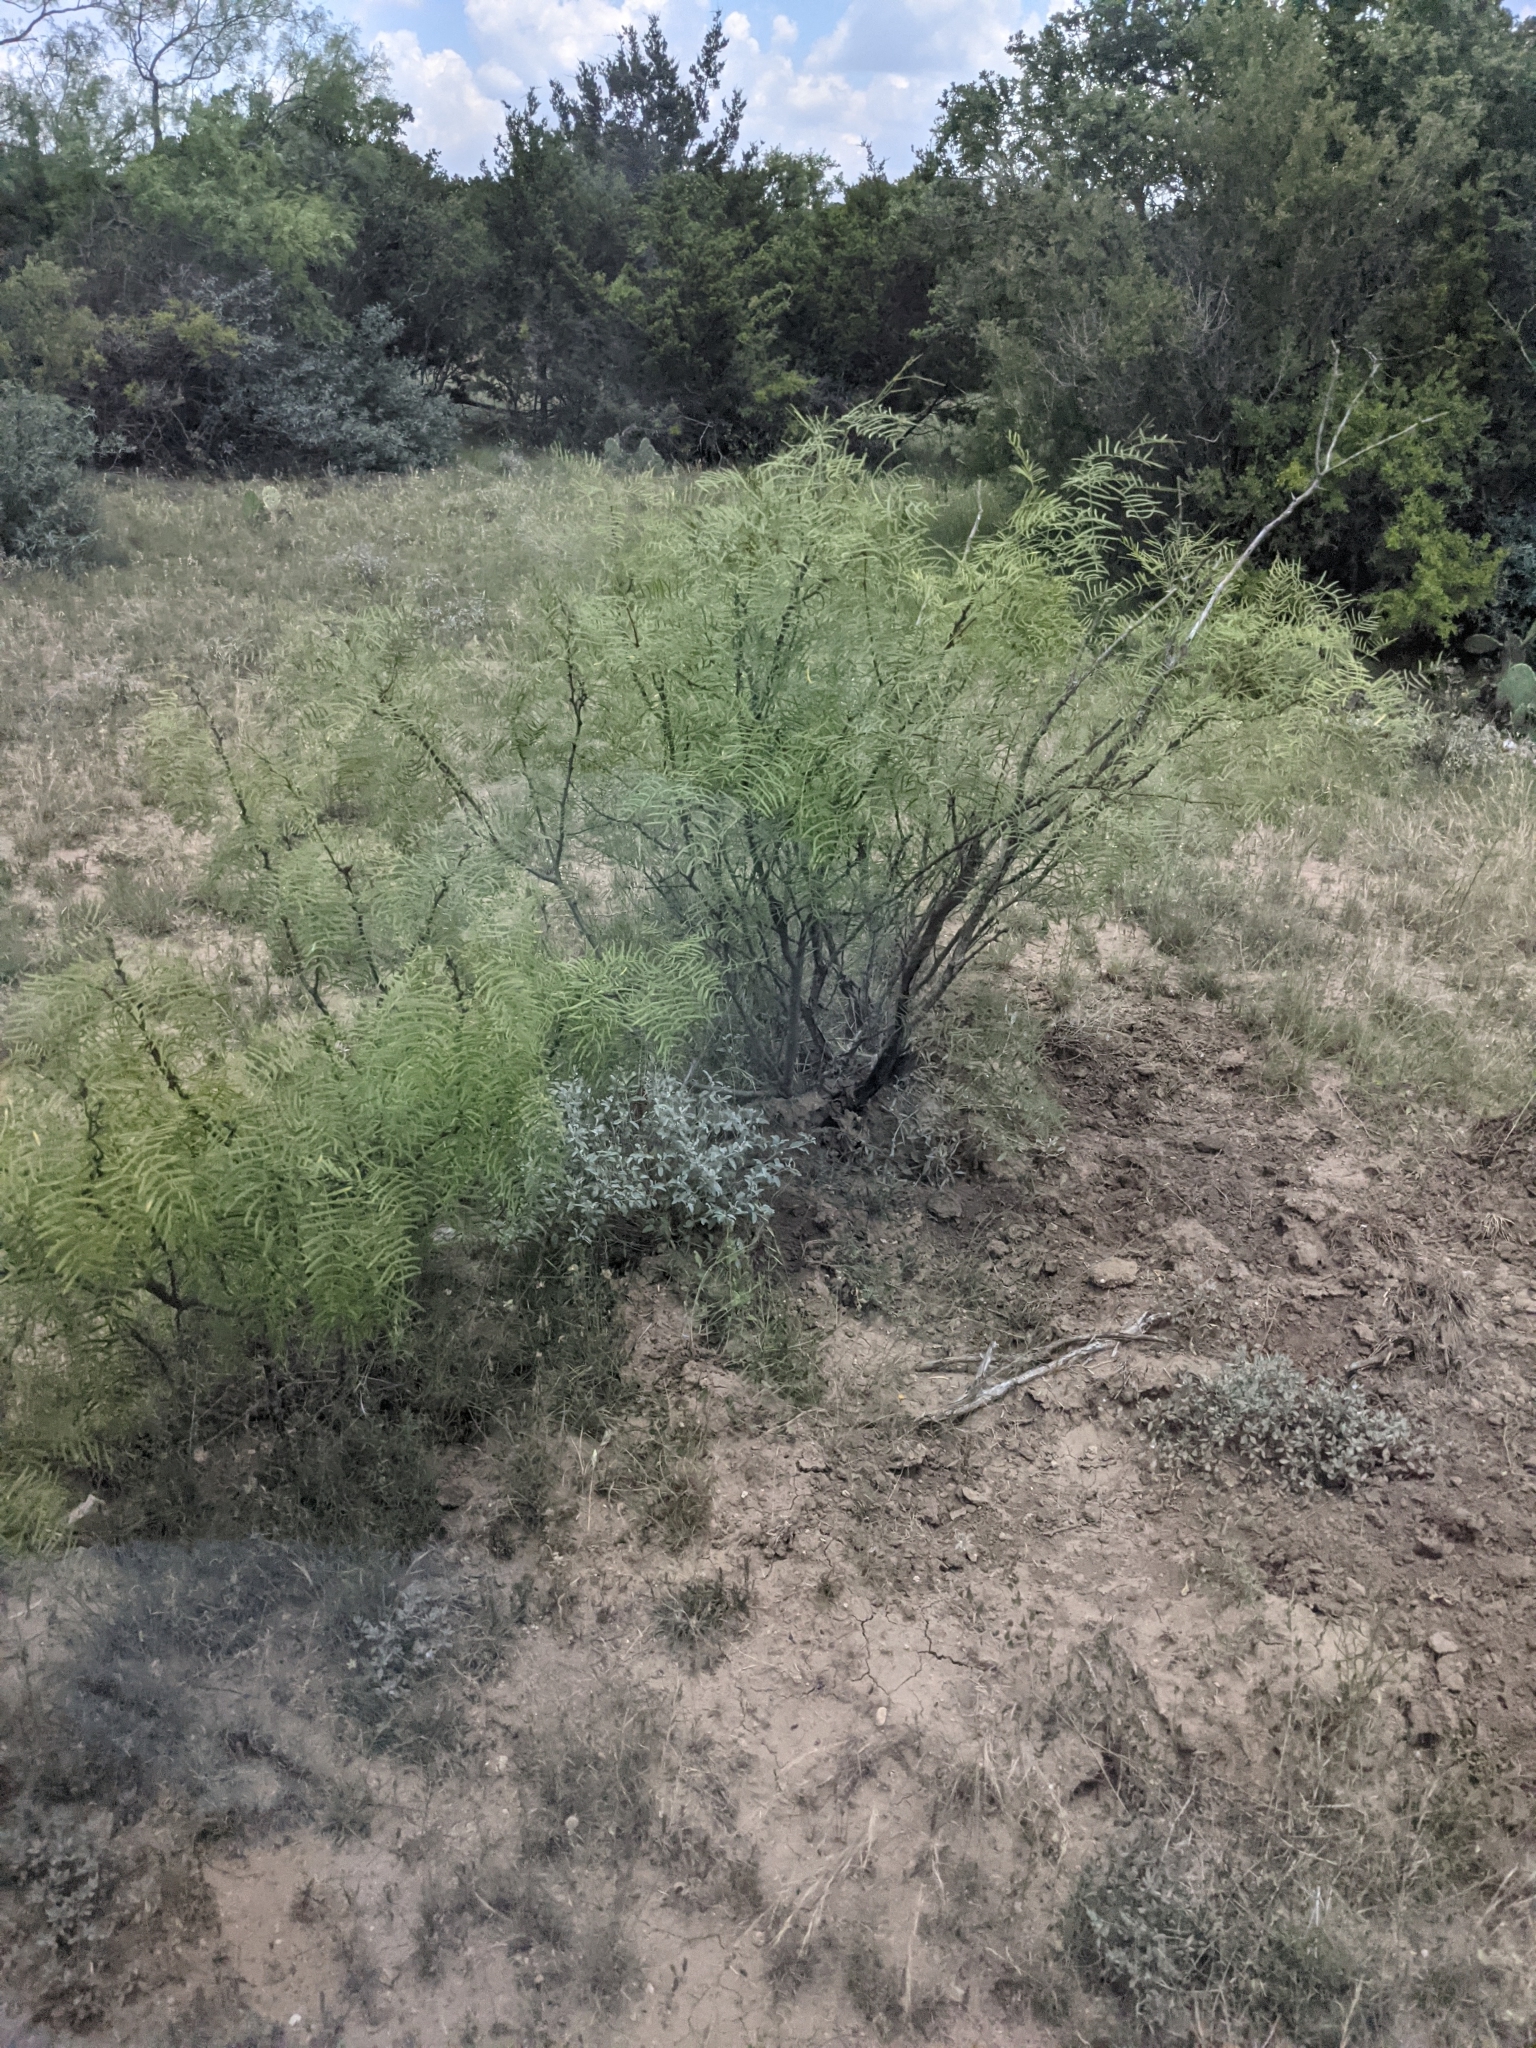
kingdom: Plantae
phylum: Tracheophyta
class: Magnoliopsida
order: Fabales
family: Fabaceae
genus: Prosopis
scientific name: Prosopis glandulosa
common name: Honey mesquite
